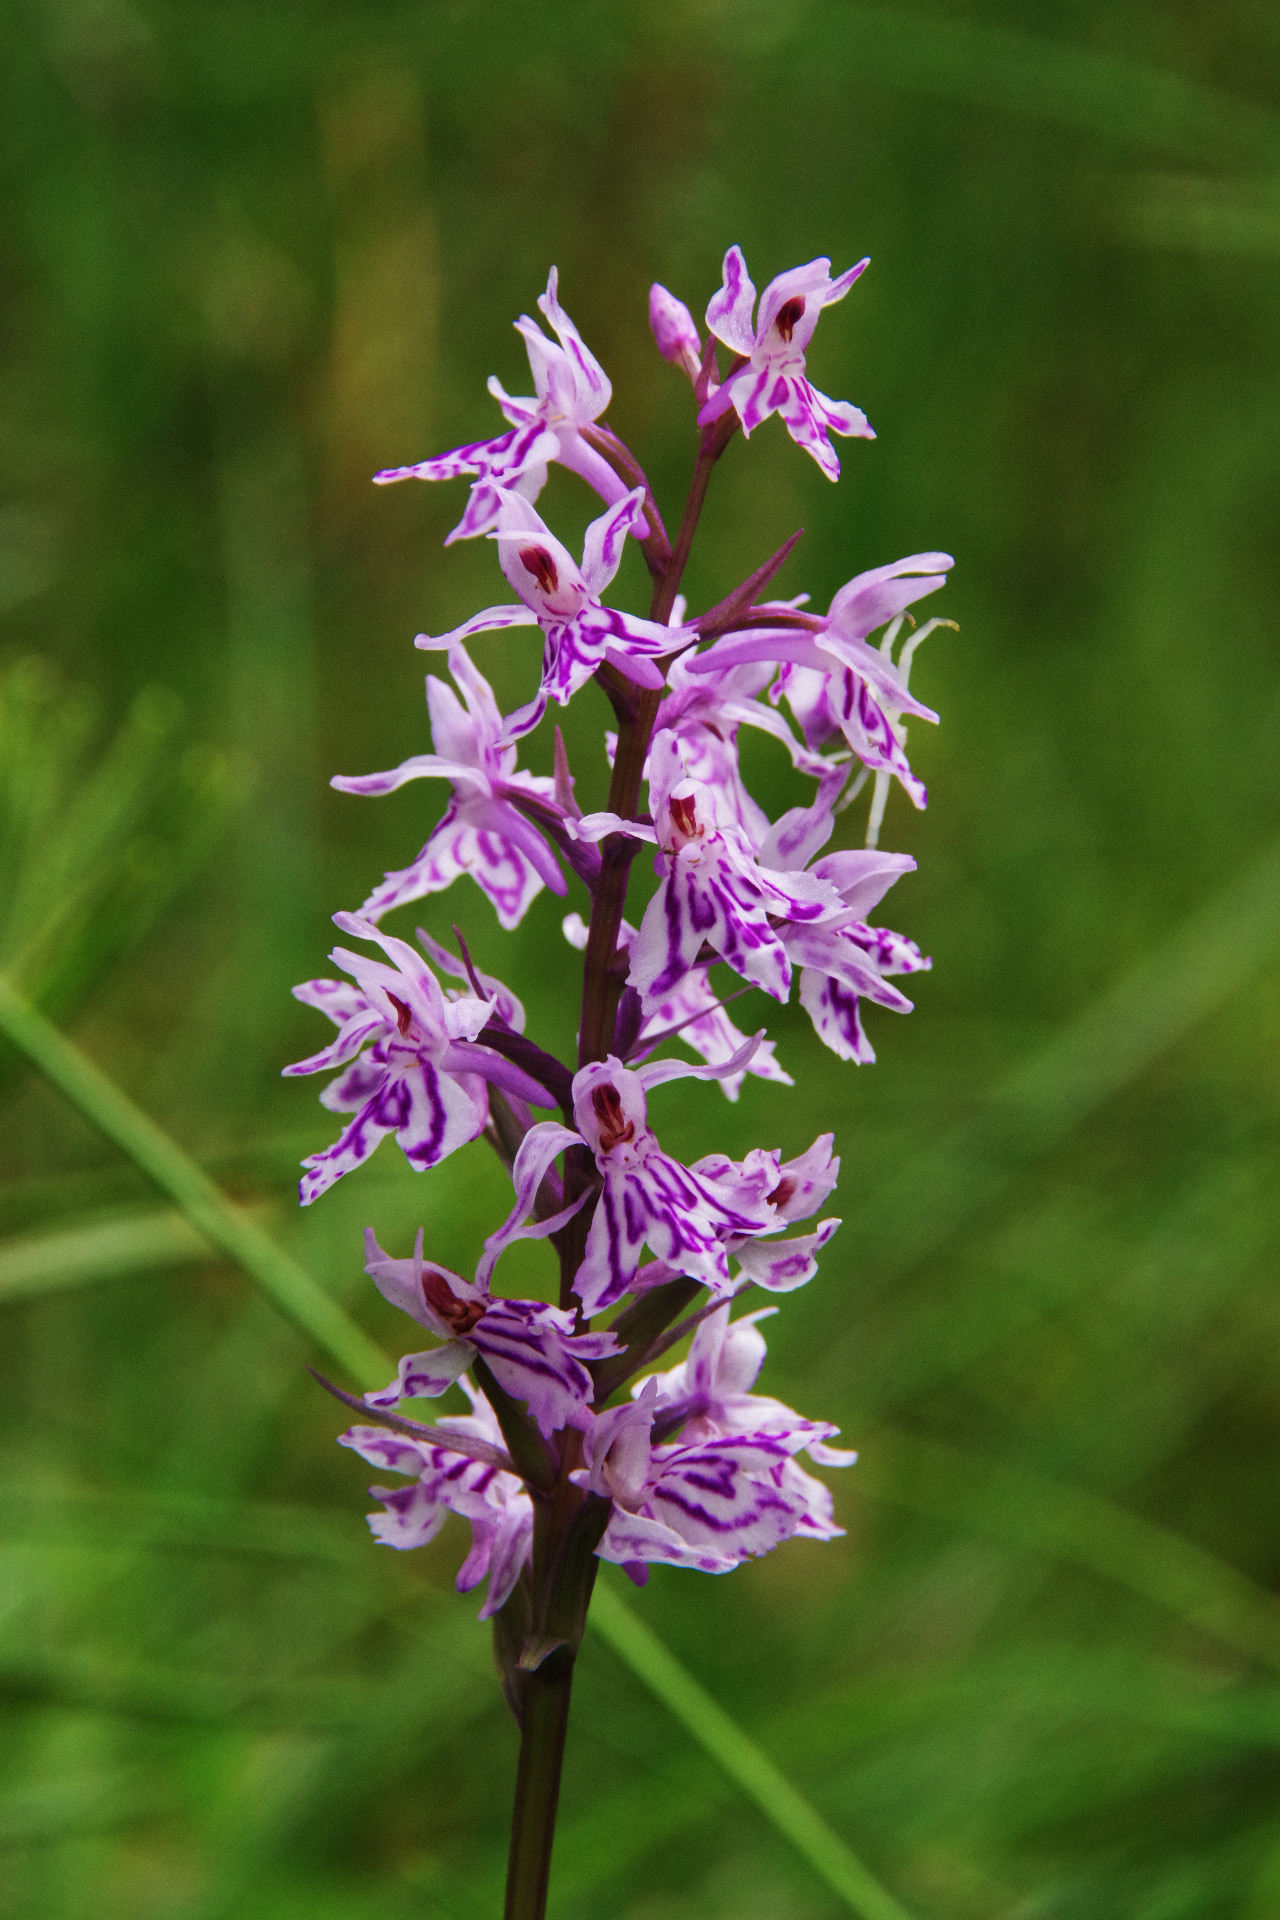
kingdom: Plantae
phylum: Tracheophyta
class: Liliopsida
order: Asparagales
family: Orchidaceae
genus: Dactylorhiza
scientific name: Dactylorhiza maculata
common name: Heath spotted-orchid
